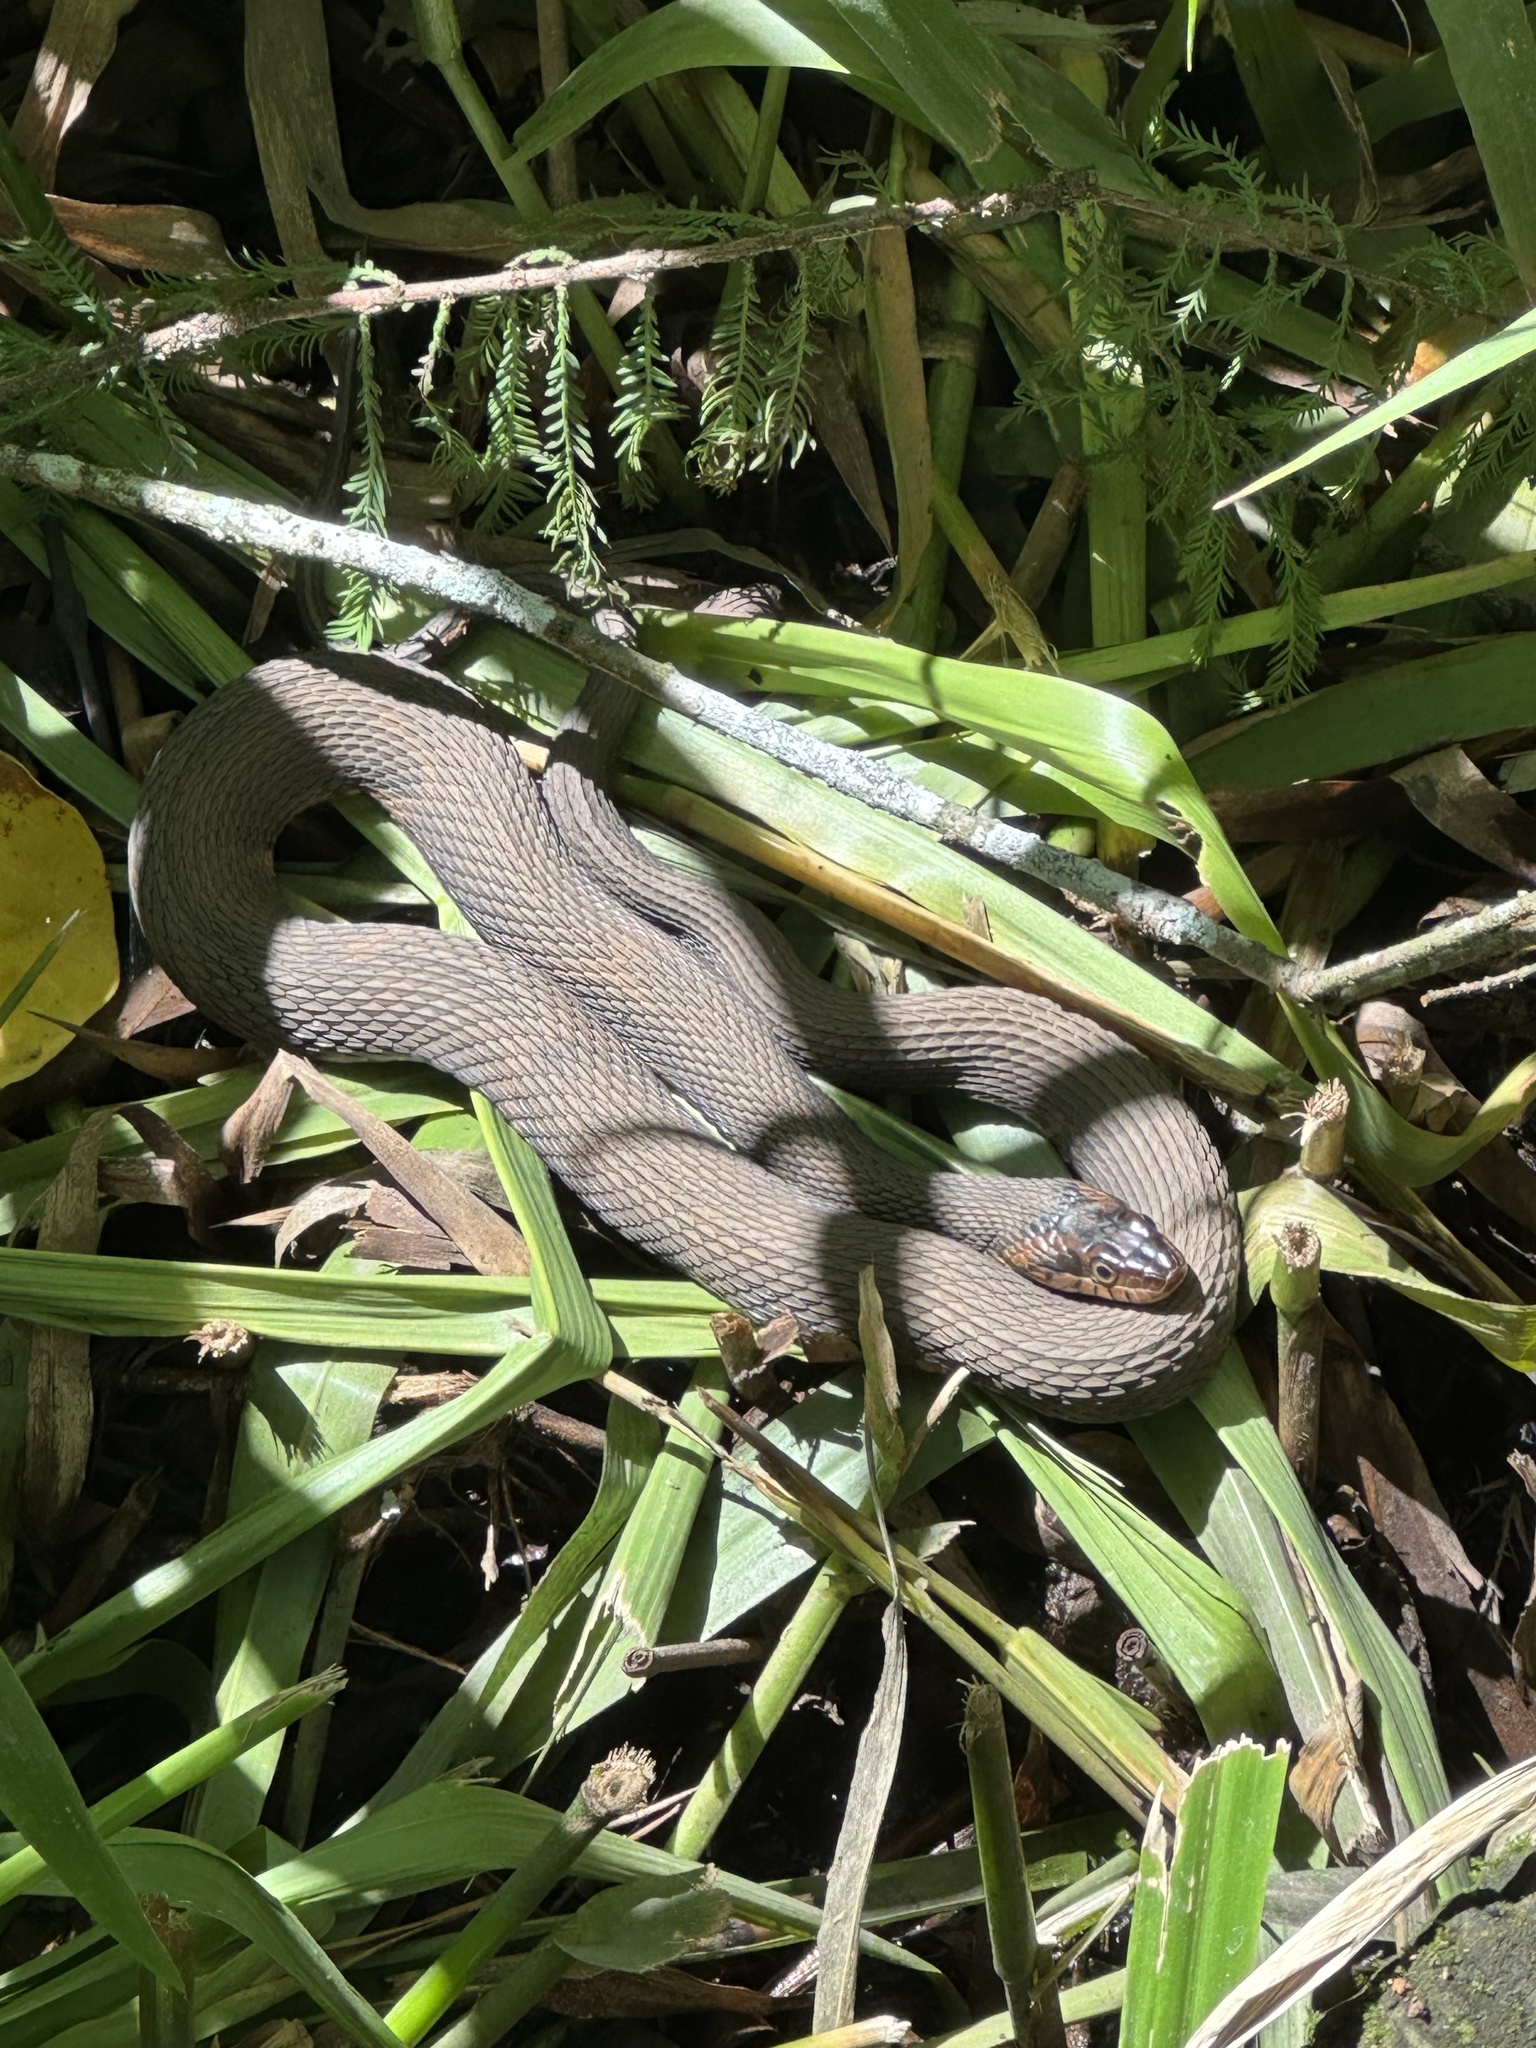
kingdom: Animalia
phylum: Chordata
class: Squamata
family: Colubridae
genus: Nerodia
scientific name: Nerodia fasciata
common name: Southern water snake
